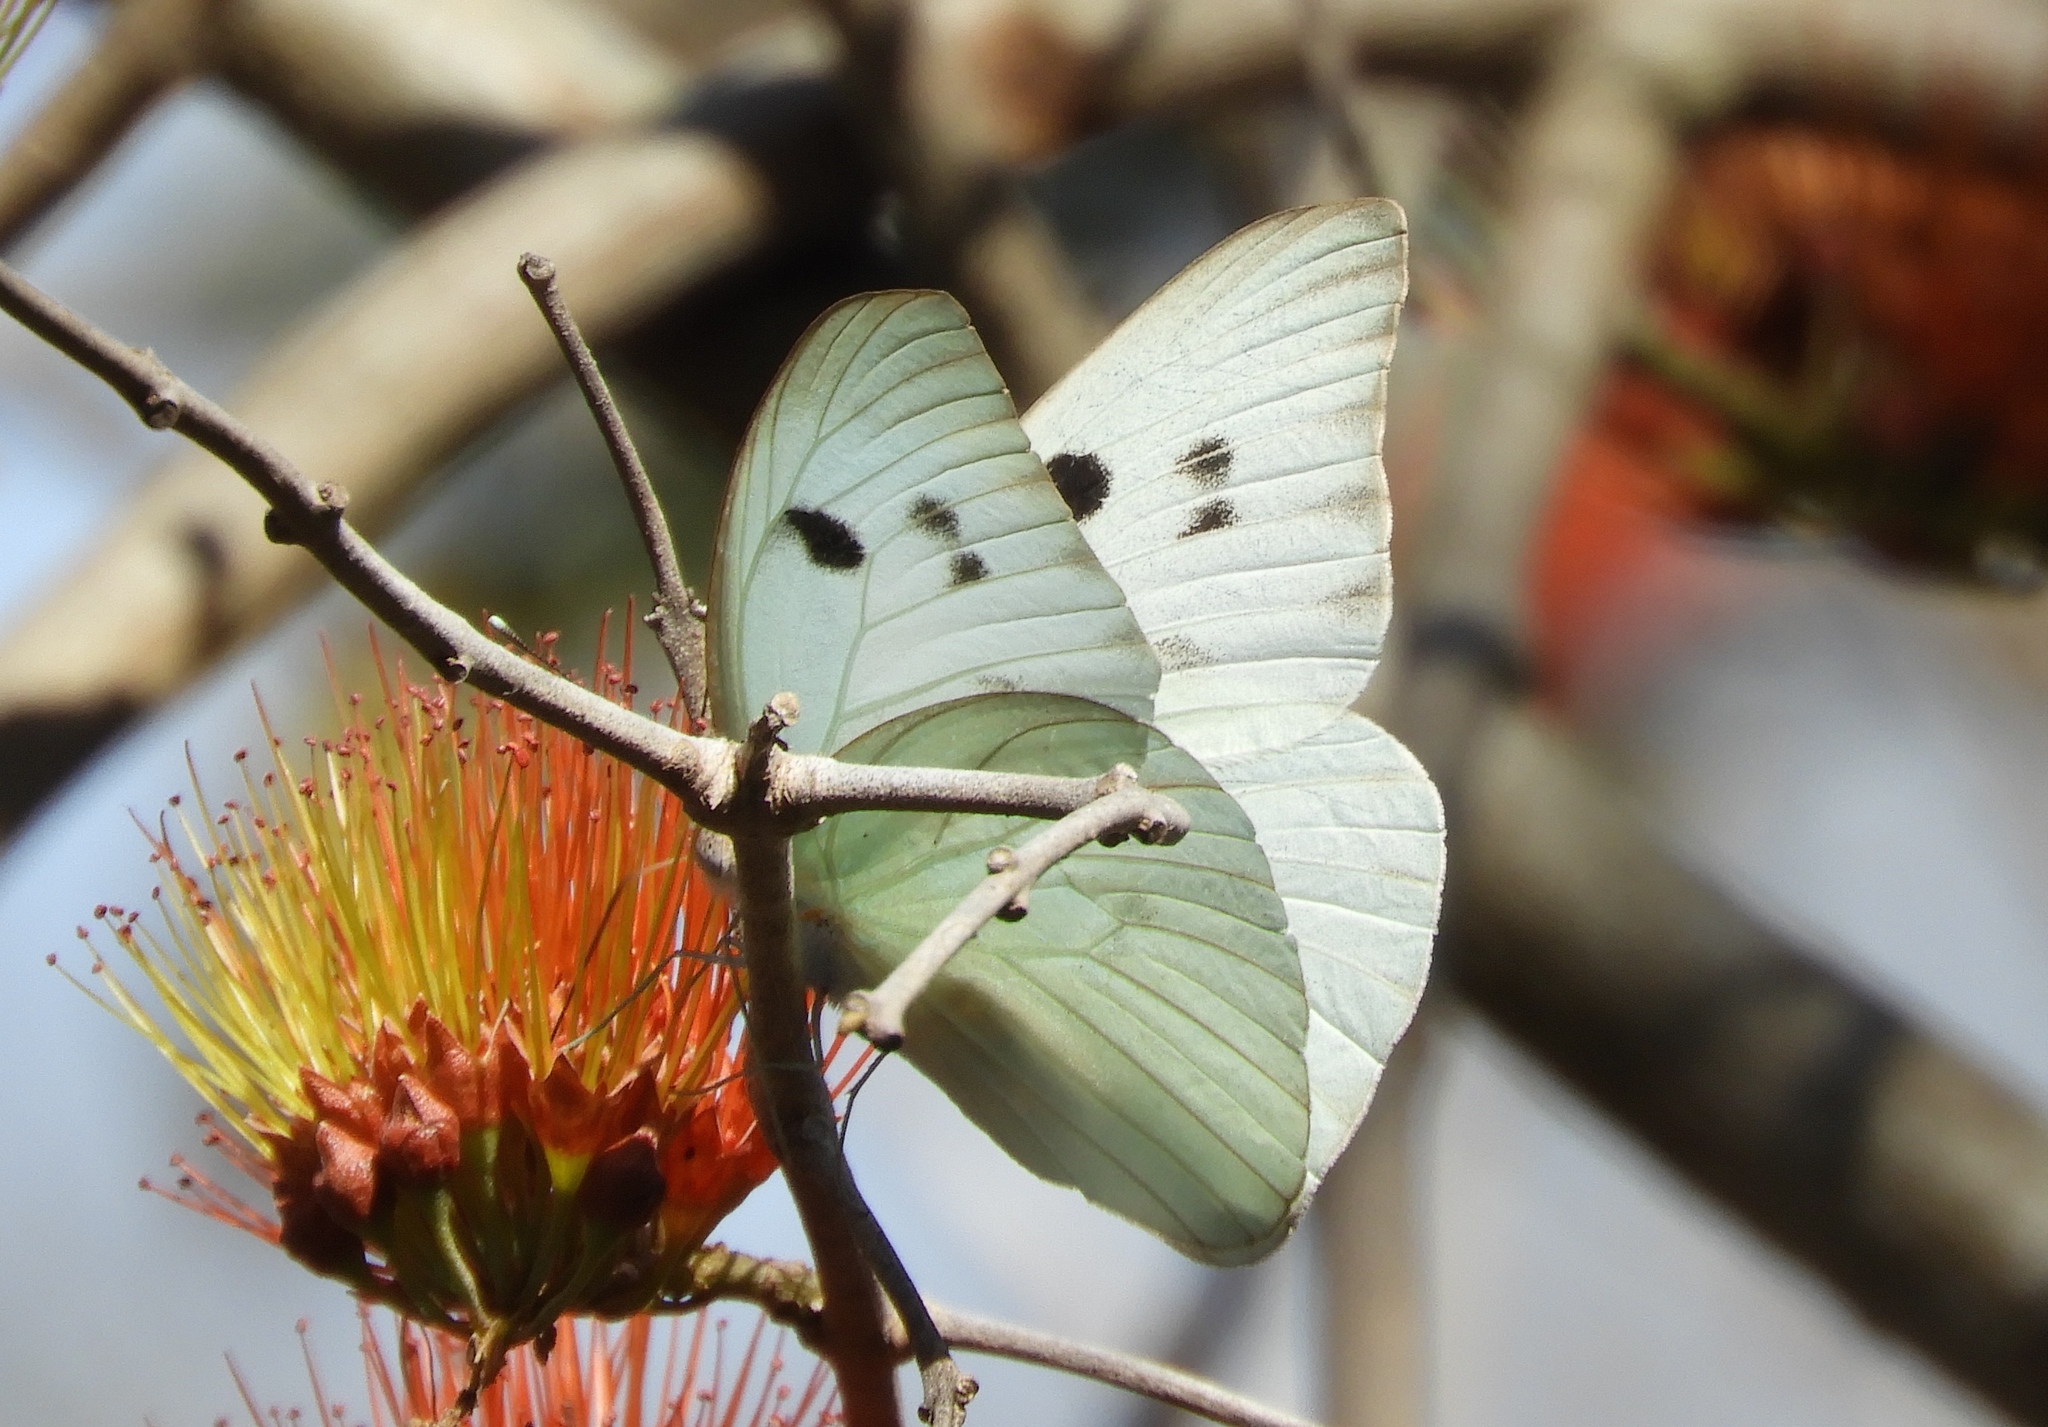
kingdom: Animalia
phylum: Arthropoda
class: Insecta
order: Lepidoptera
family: Pieridae
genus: Ganyra
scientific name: Ganyra josephina
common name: Giant white
